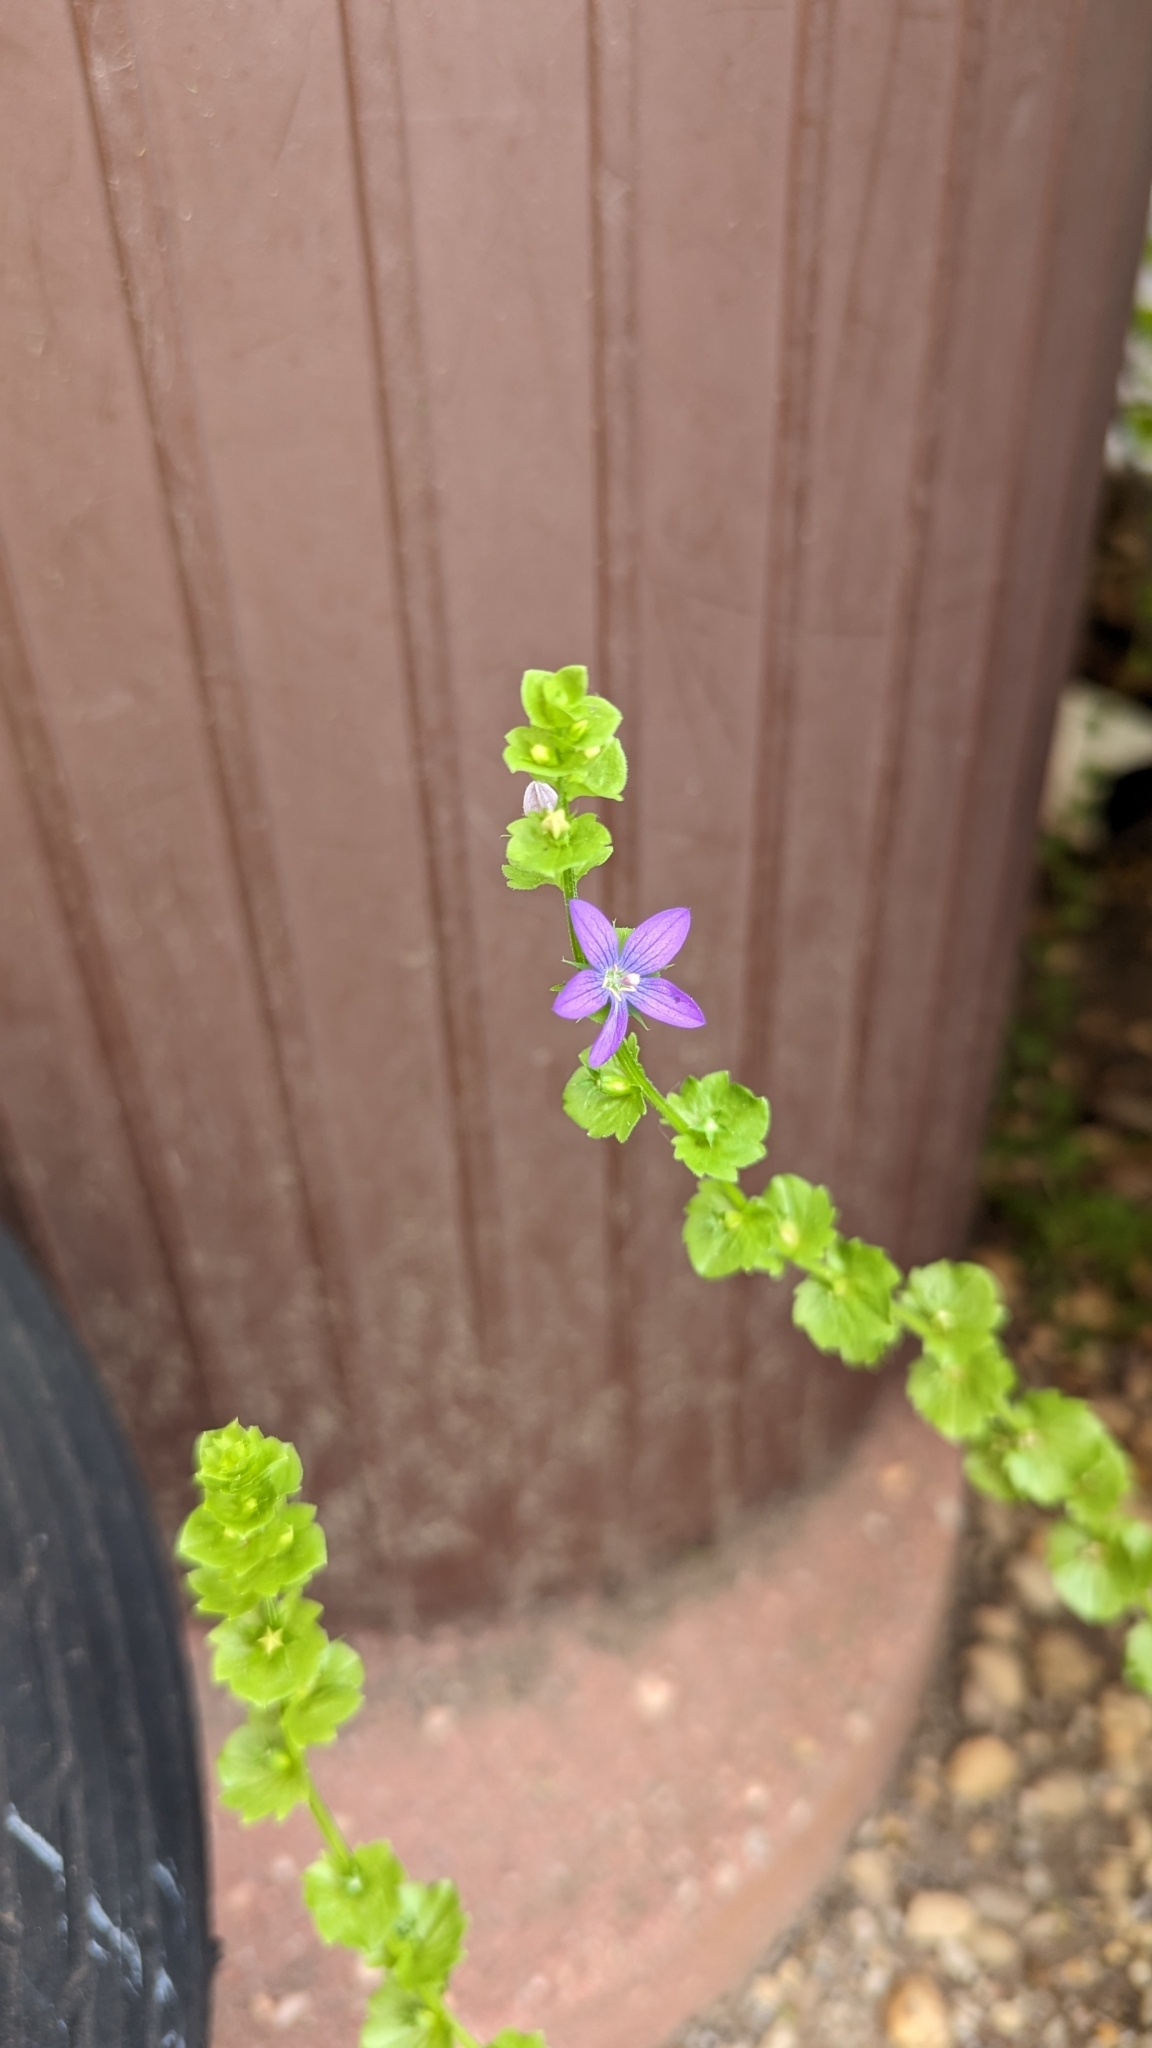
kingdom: Plantae
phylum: Tracheophyta
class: Magnoliopsida
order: Asterales
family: Campanulaceae
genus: Triodanis
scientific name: Triodanis perfoliata
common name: Clasping venus' looking-glass
